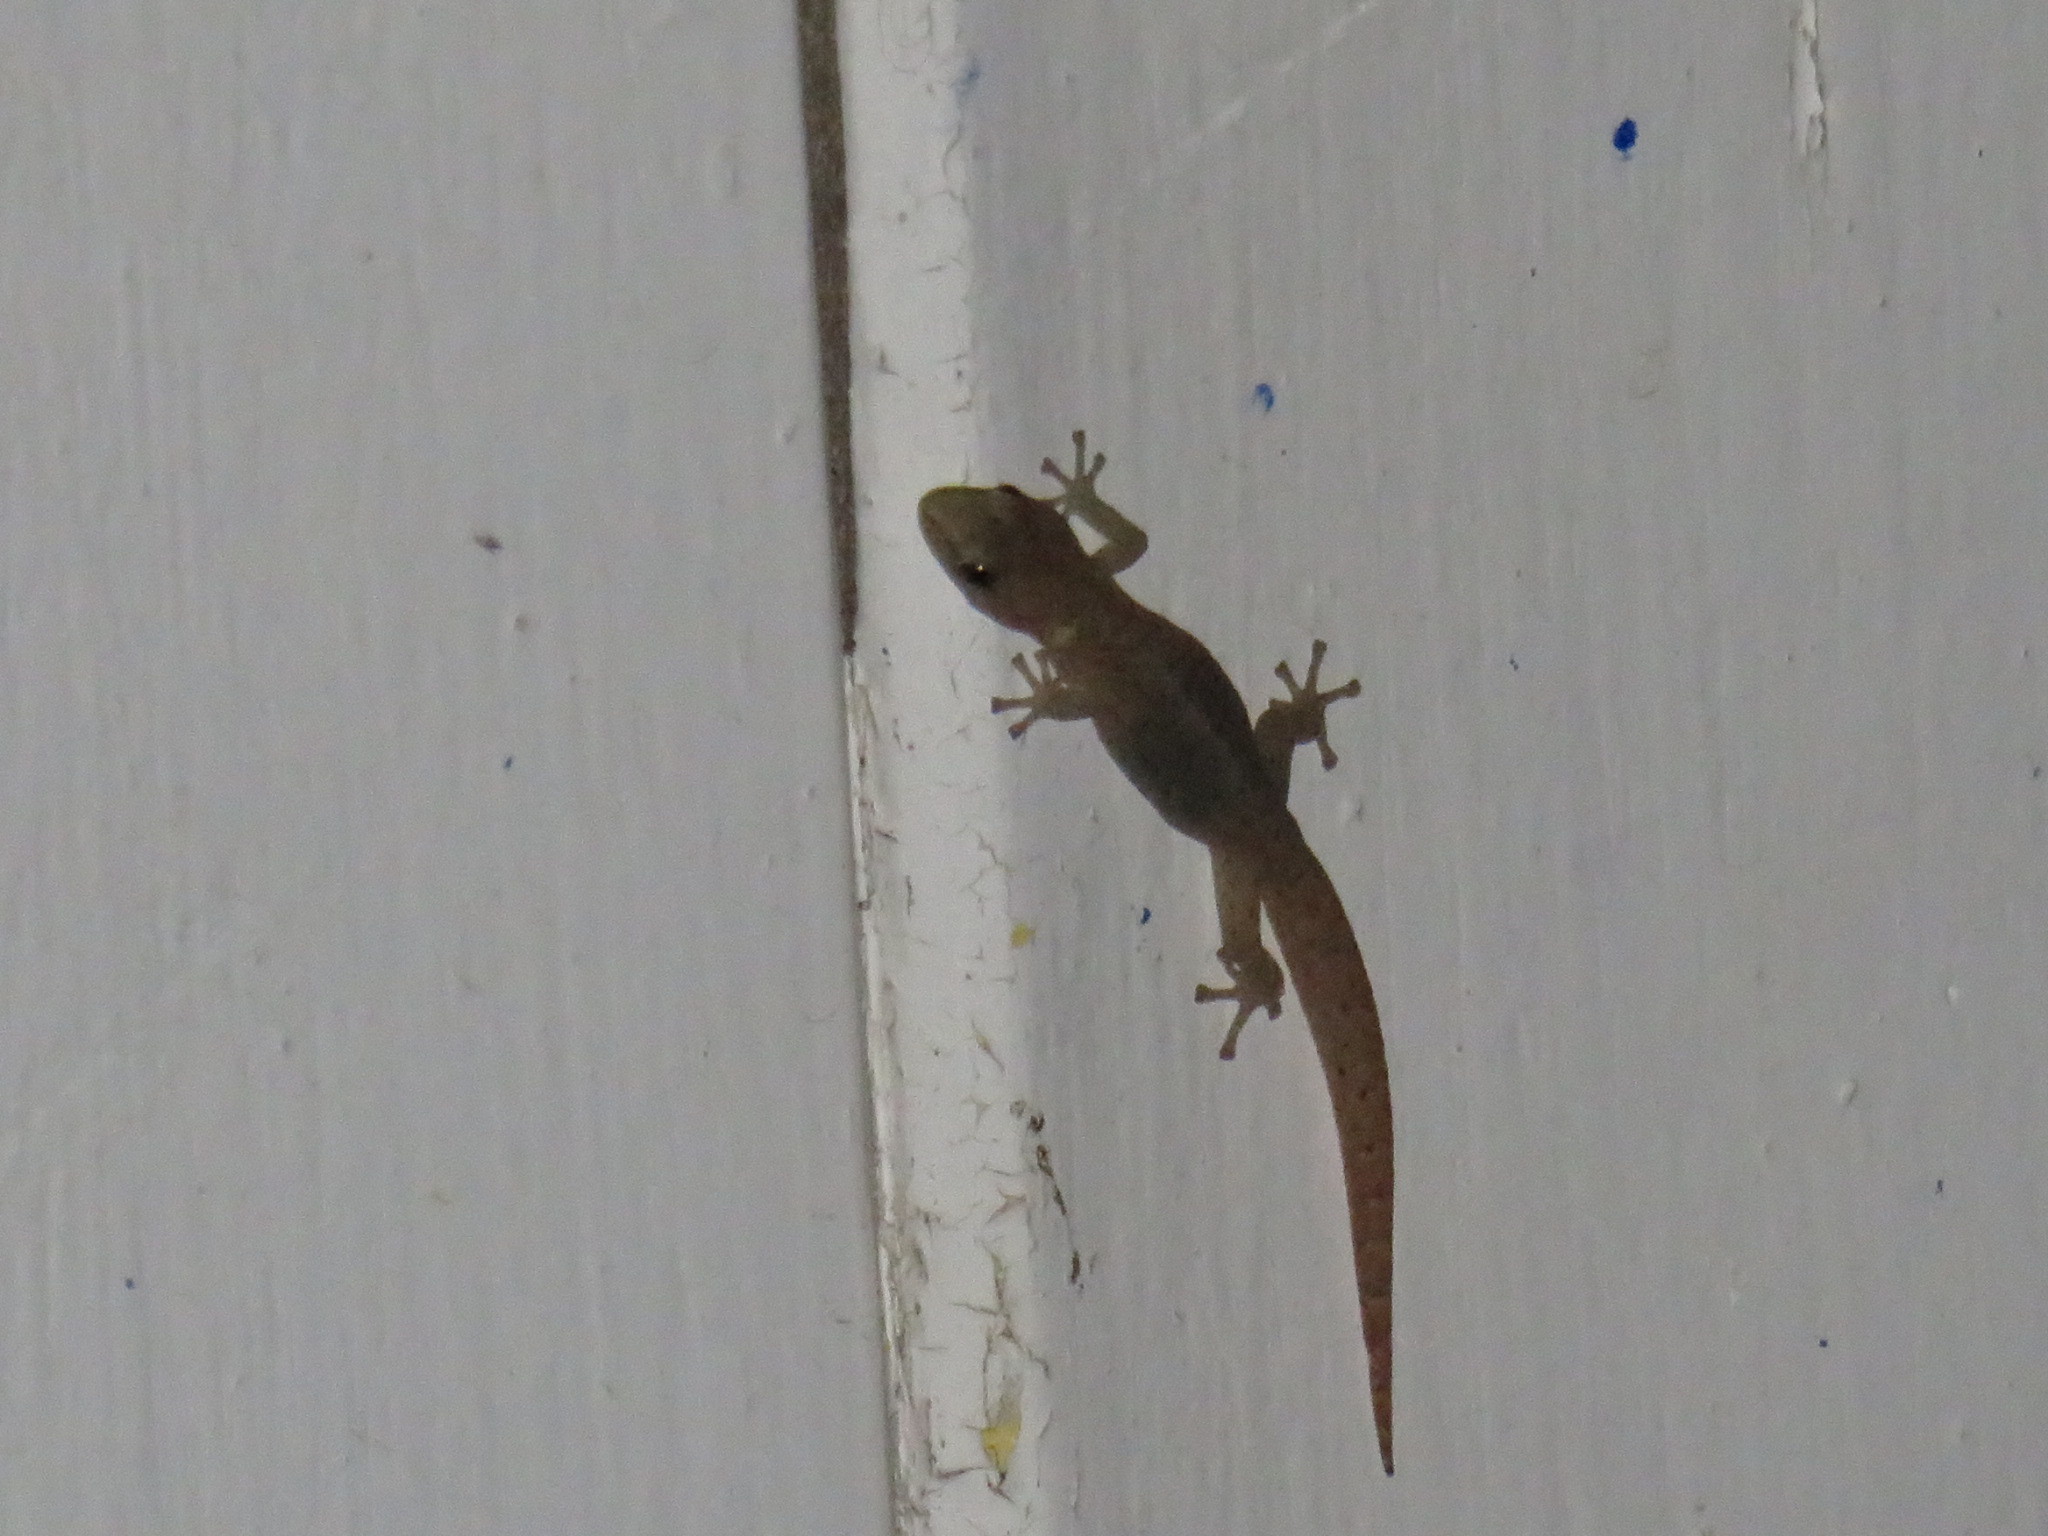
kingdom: Animalia
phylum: Chordata
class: Squamata
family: Gekkonidae
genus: Afrogecko
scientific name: Afrogecko porphyreus
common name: Marbled leaf-toed gecko
